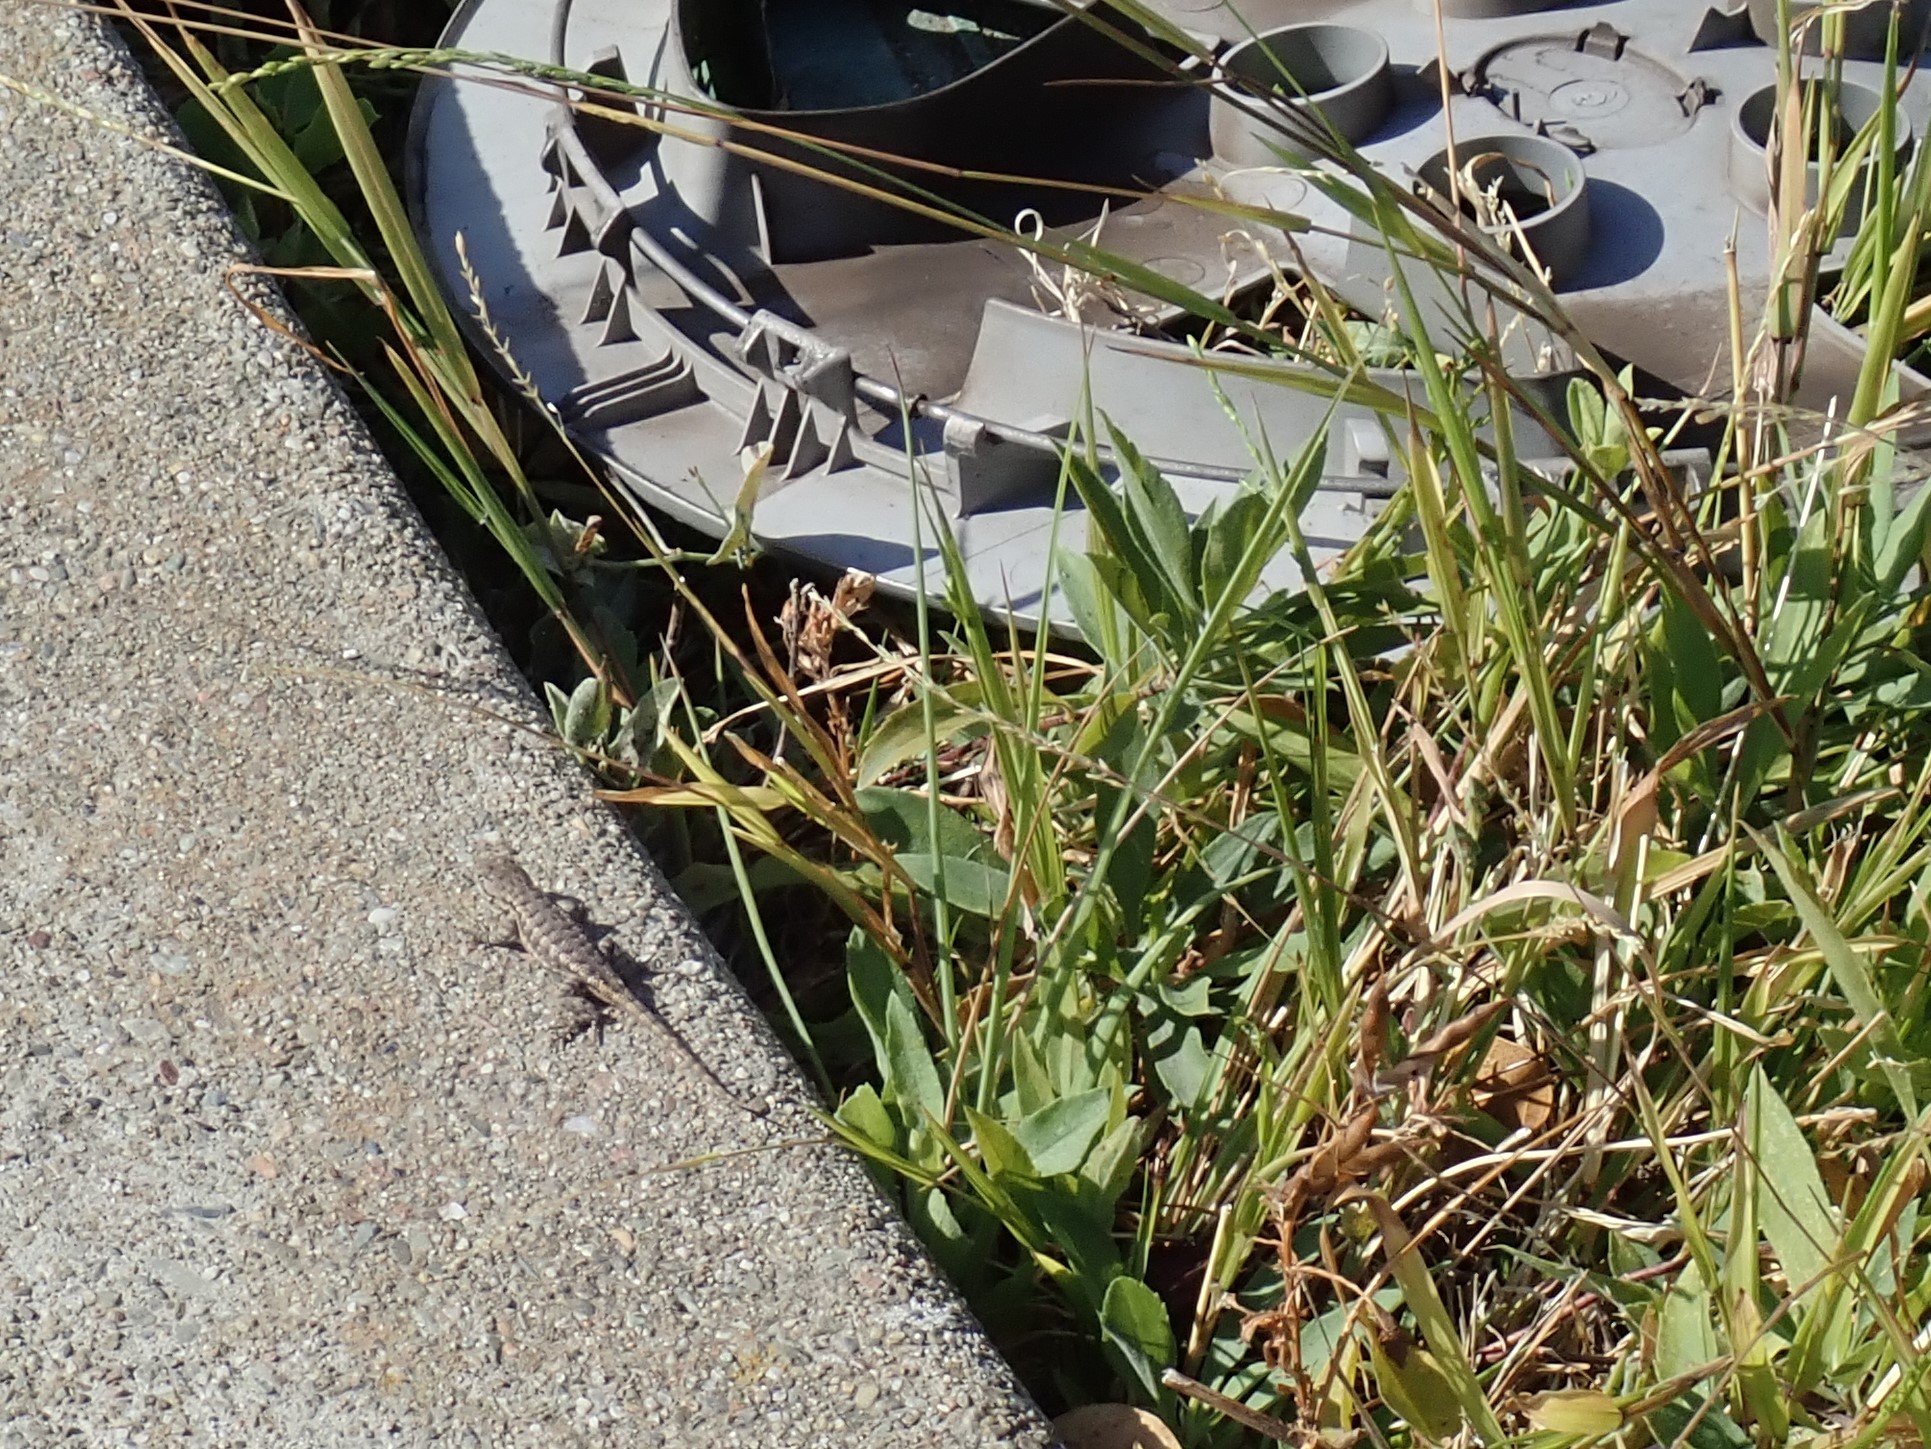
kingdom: Animalia
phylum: Chordata
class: Squamata
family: Phrynosomatidae
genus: Sceloporus
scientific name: Sceloporus occidentalis
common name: Western fence lizard
